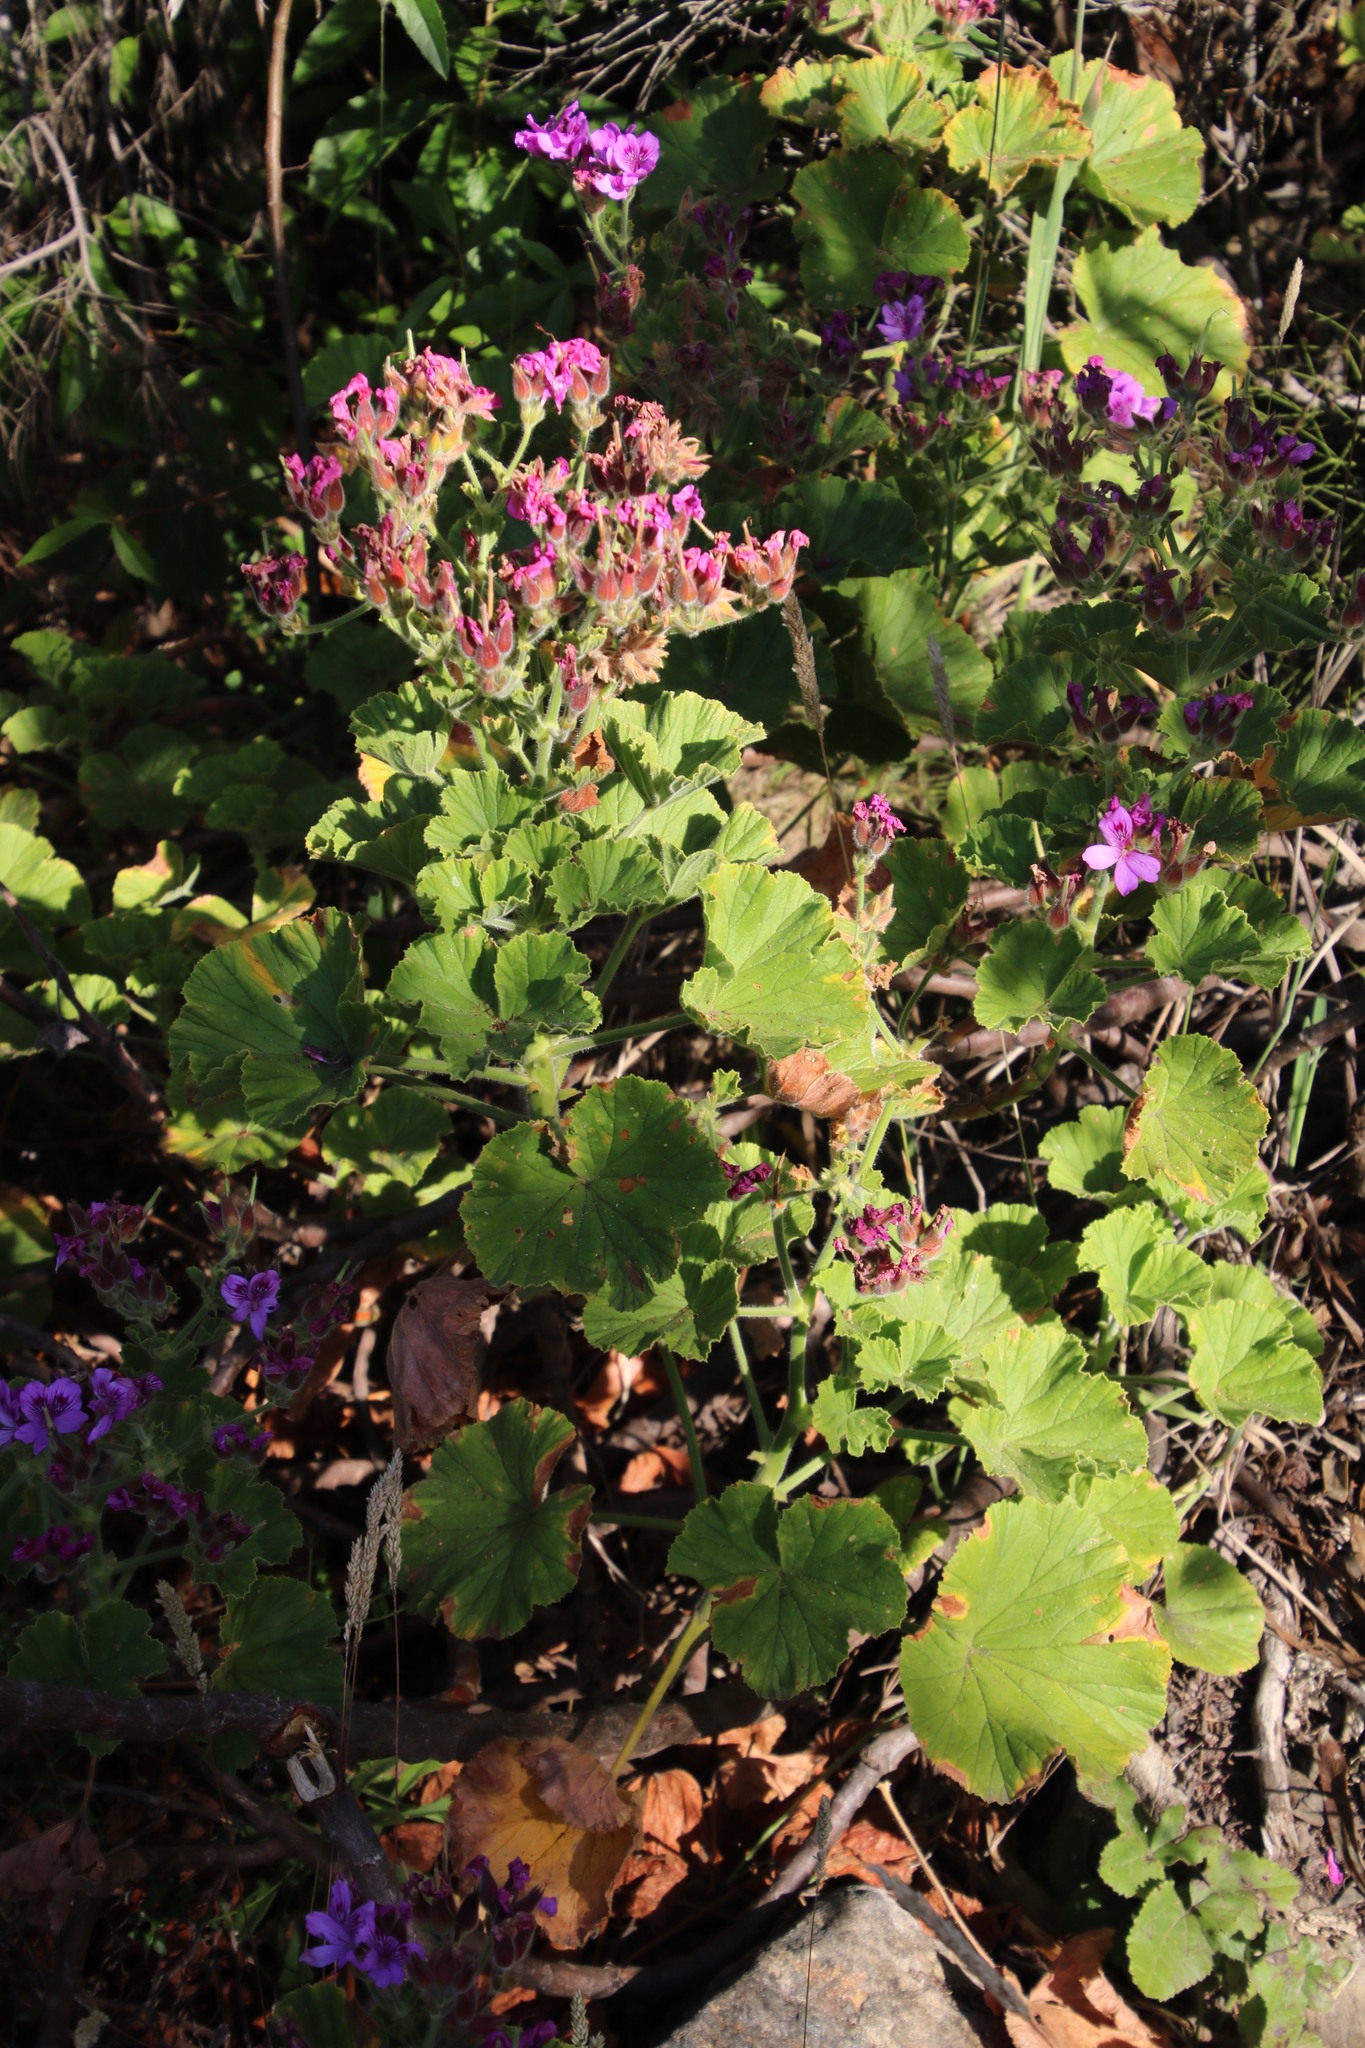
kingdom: Plantae
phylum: Tracheophyta
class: Magnoliopsida
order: Geraniales
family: Geraniaceae
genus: Pelargonium
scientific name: Pelargonium cucullatum
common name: Tree pelargonium
